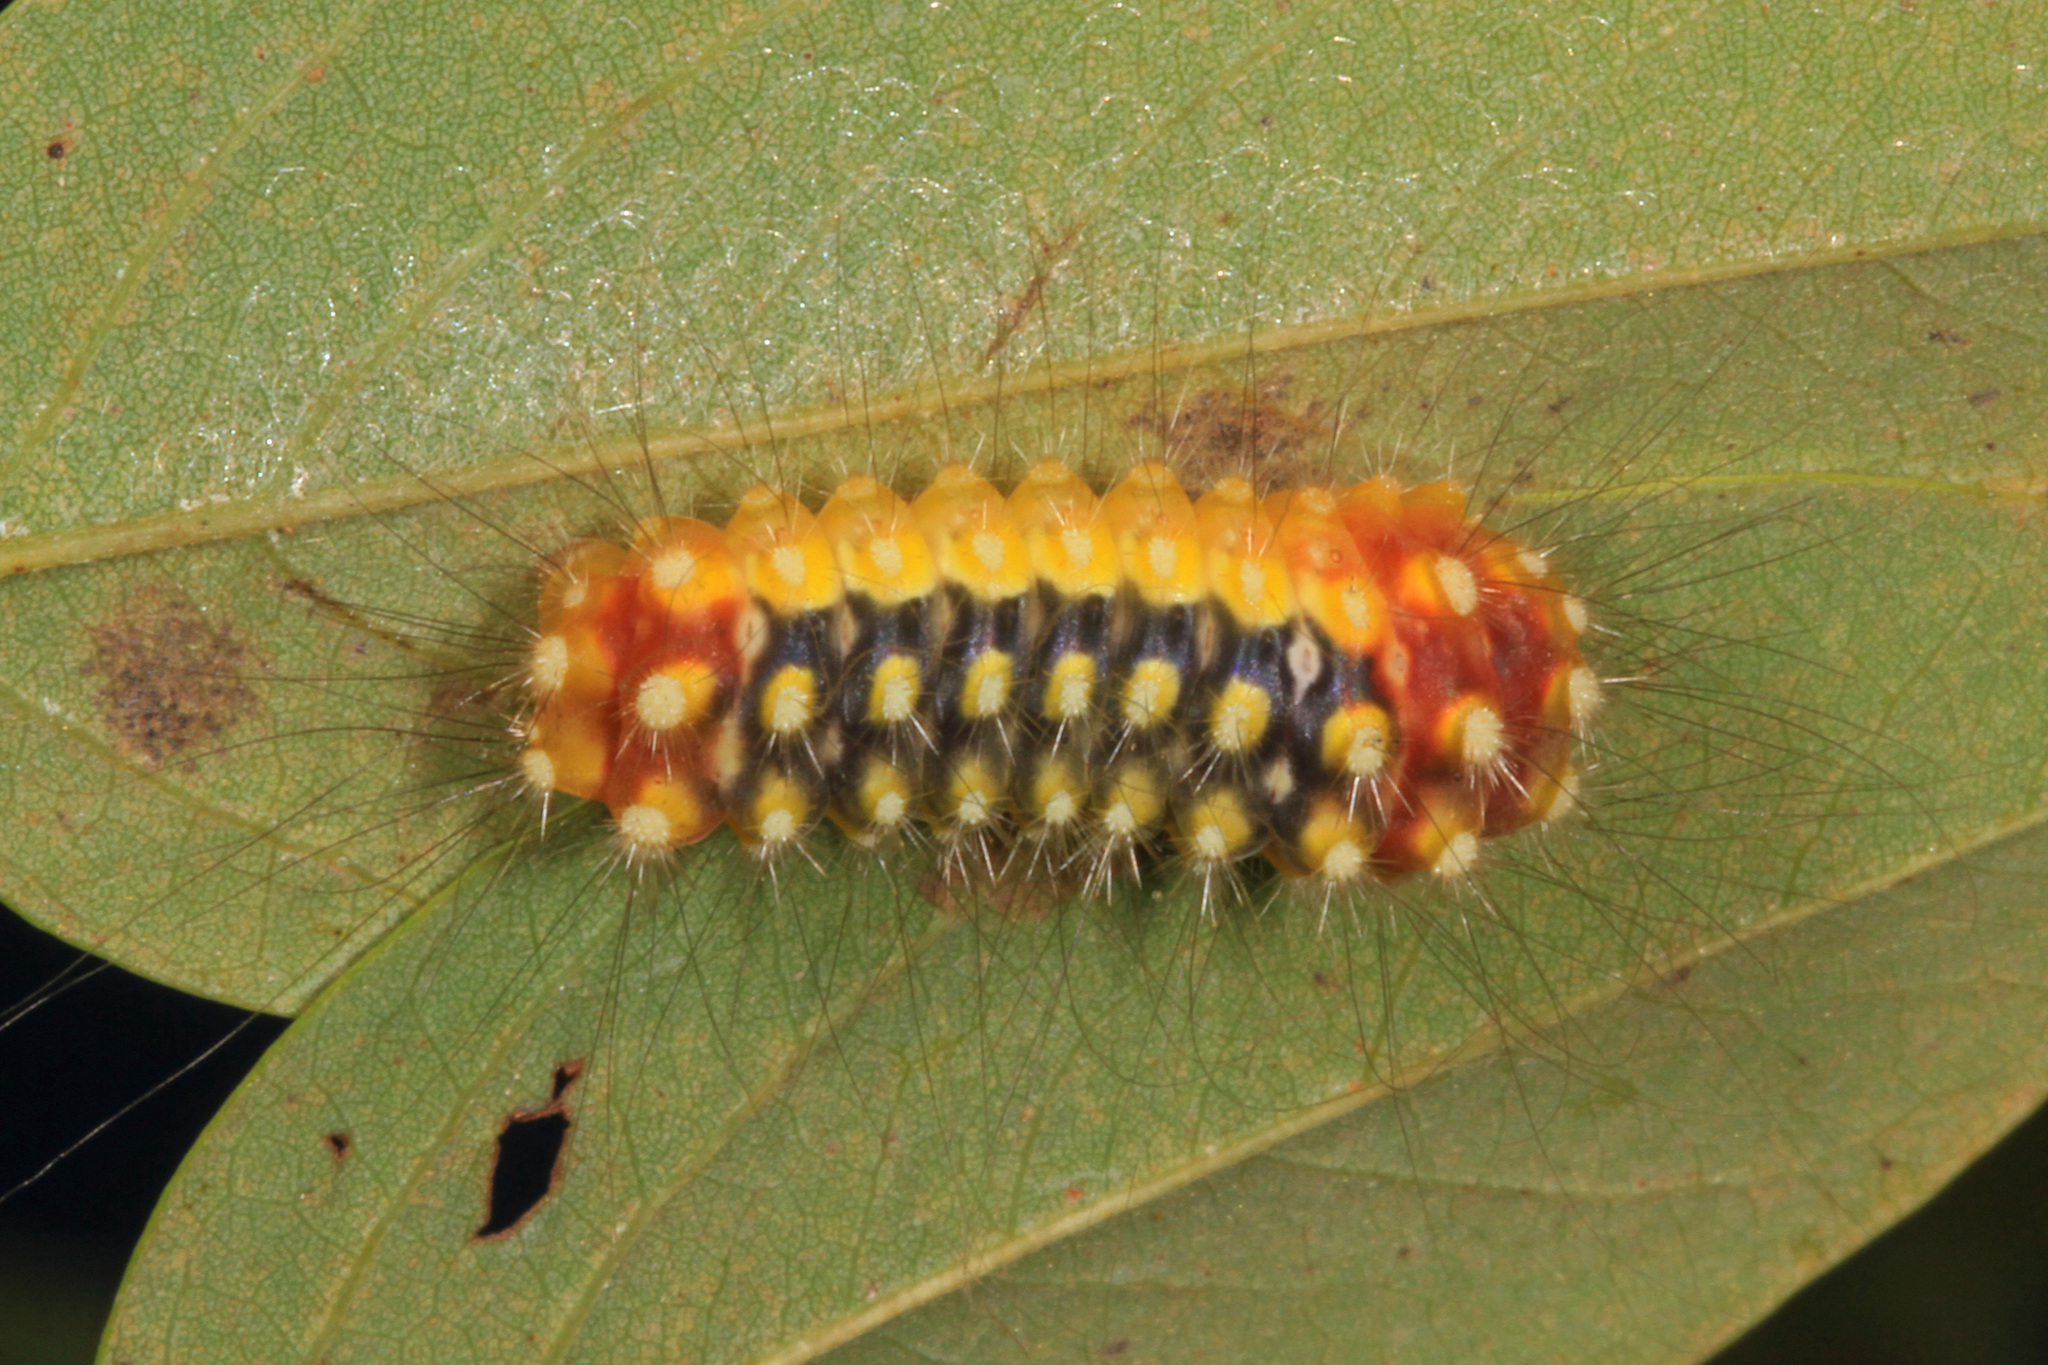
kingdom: Animalia
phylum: Arthropoda
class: Insecta
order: Lepidoptera
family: Megalopygidae
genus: Norape
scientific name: Norape cretata
